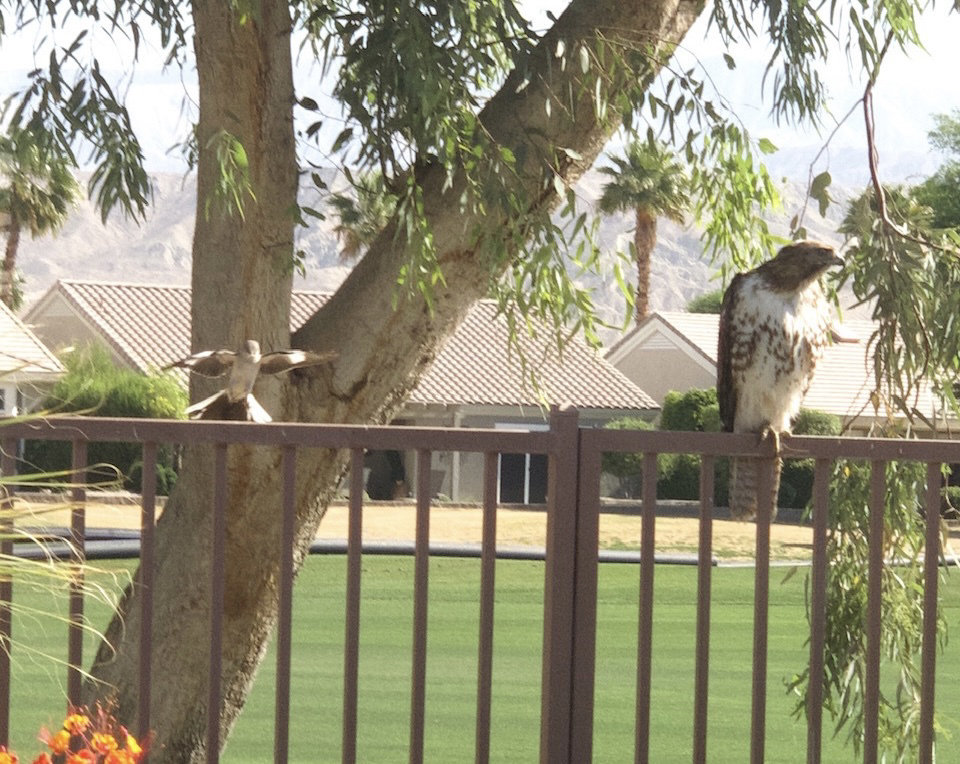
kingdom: Animalia
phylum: Chordata
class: Aves
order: Accipitriformes
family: Accipitridae
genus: Buteo
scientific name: Buteo jamaicensis
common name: Red-tailed hawk
